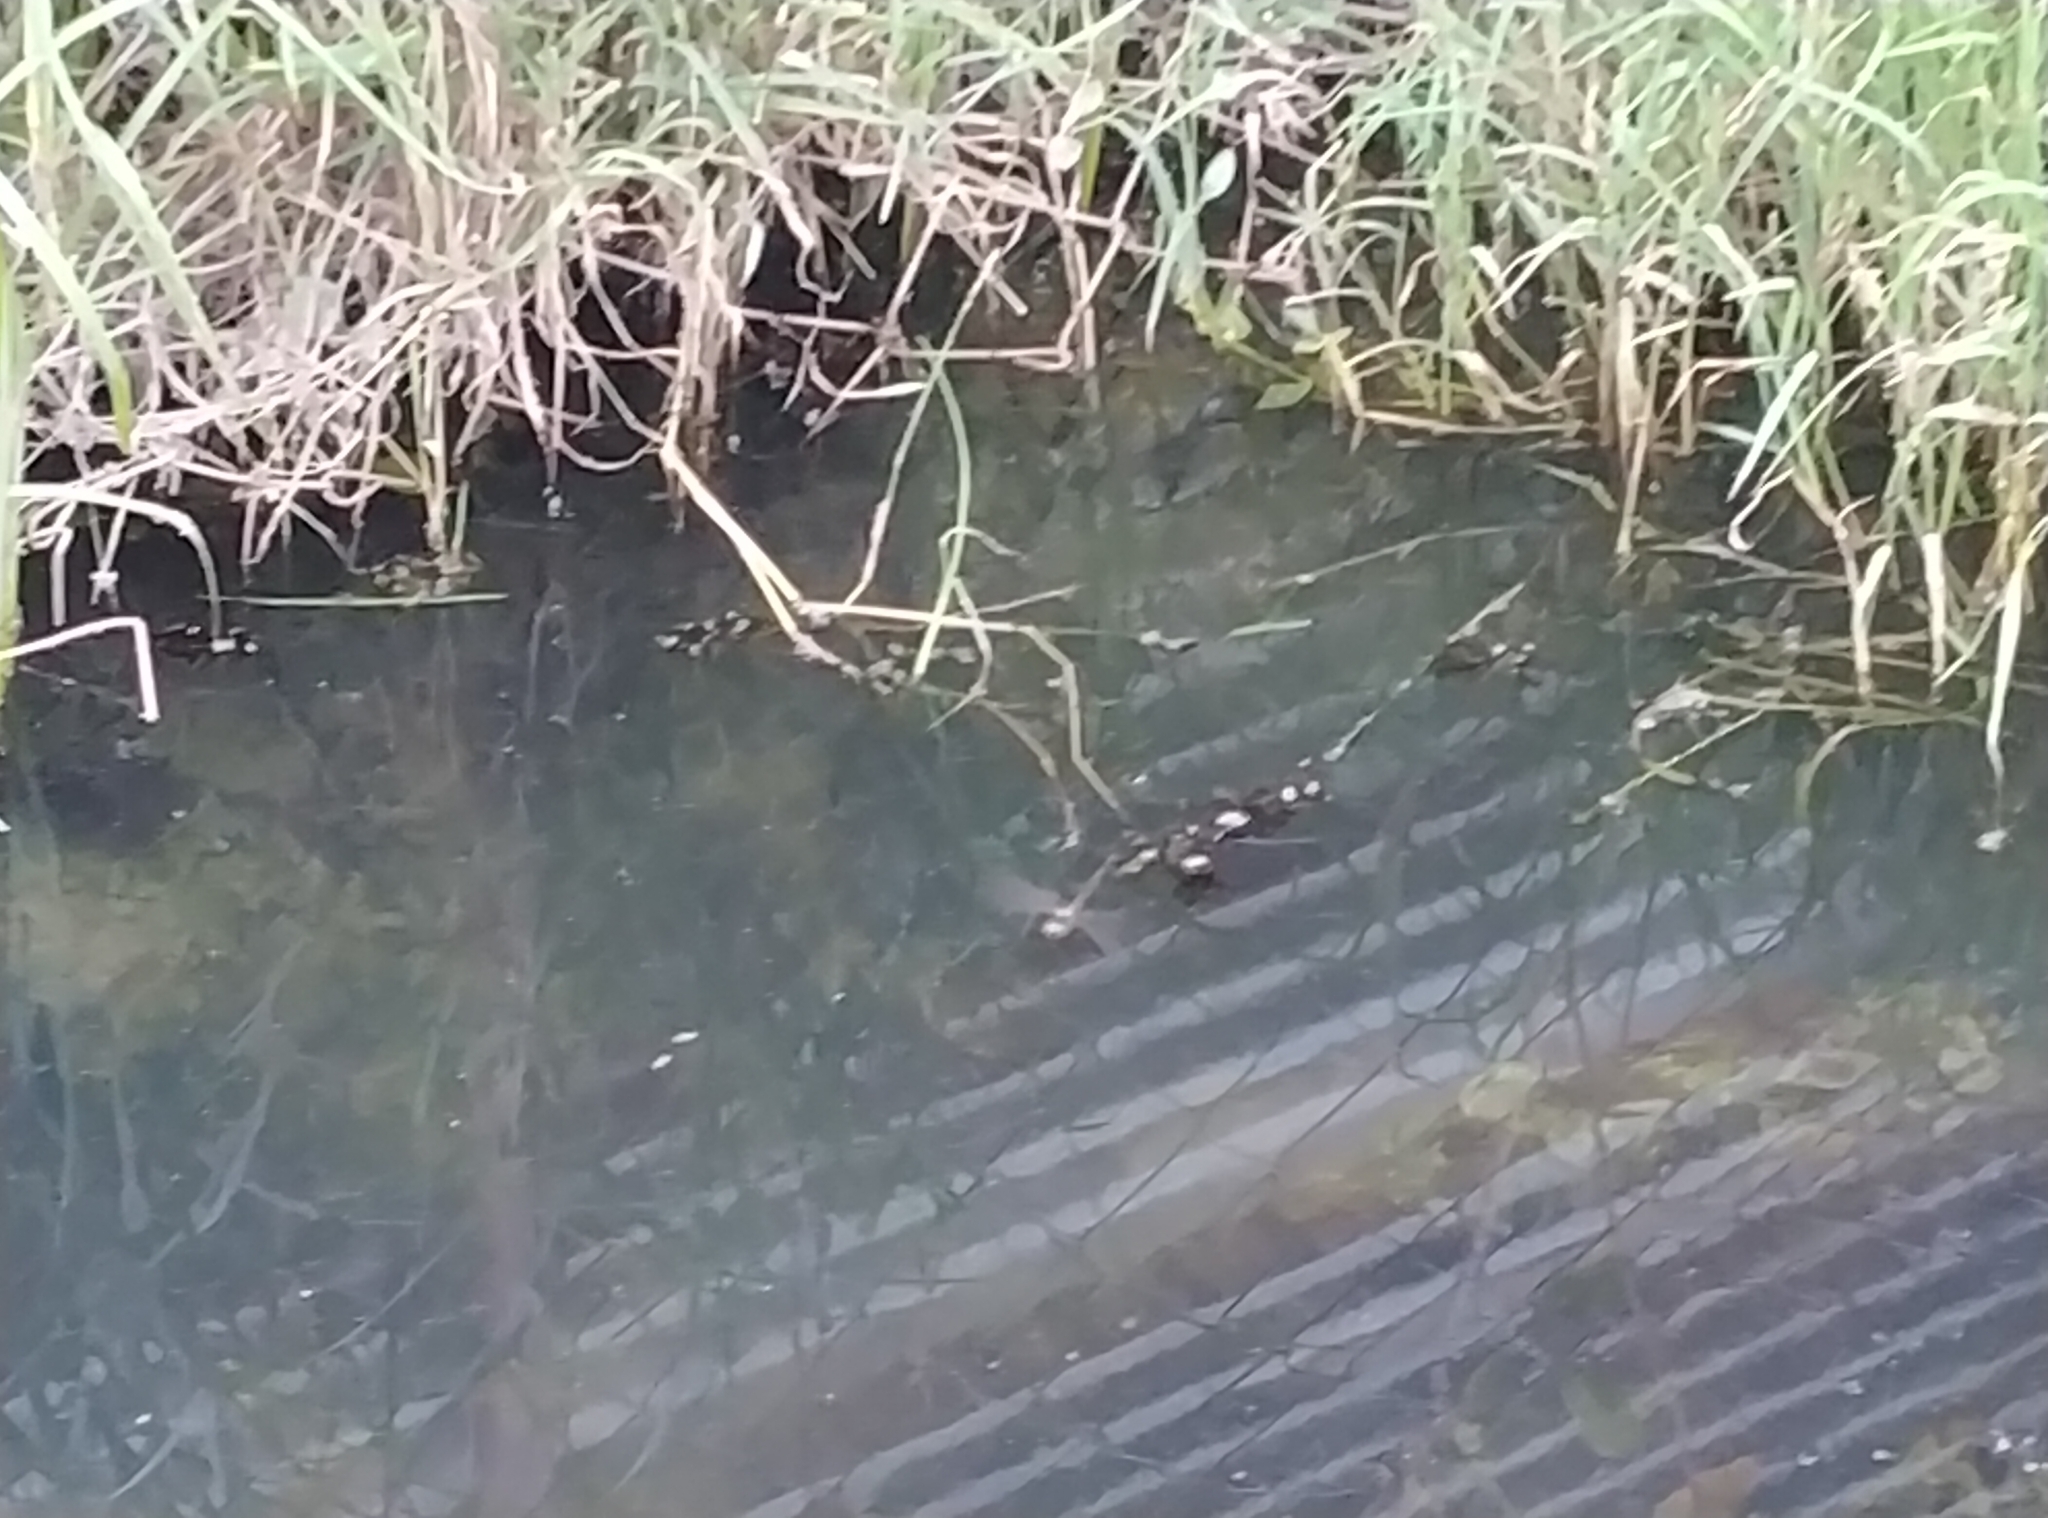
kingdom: Animalia
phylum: Arthropoda
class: Insecta
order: Odonata
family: Libellulidae
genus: Zyxomma
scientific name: Zyxomma petiolatum
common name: Dingy dusk-darter
